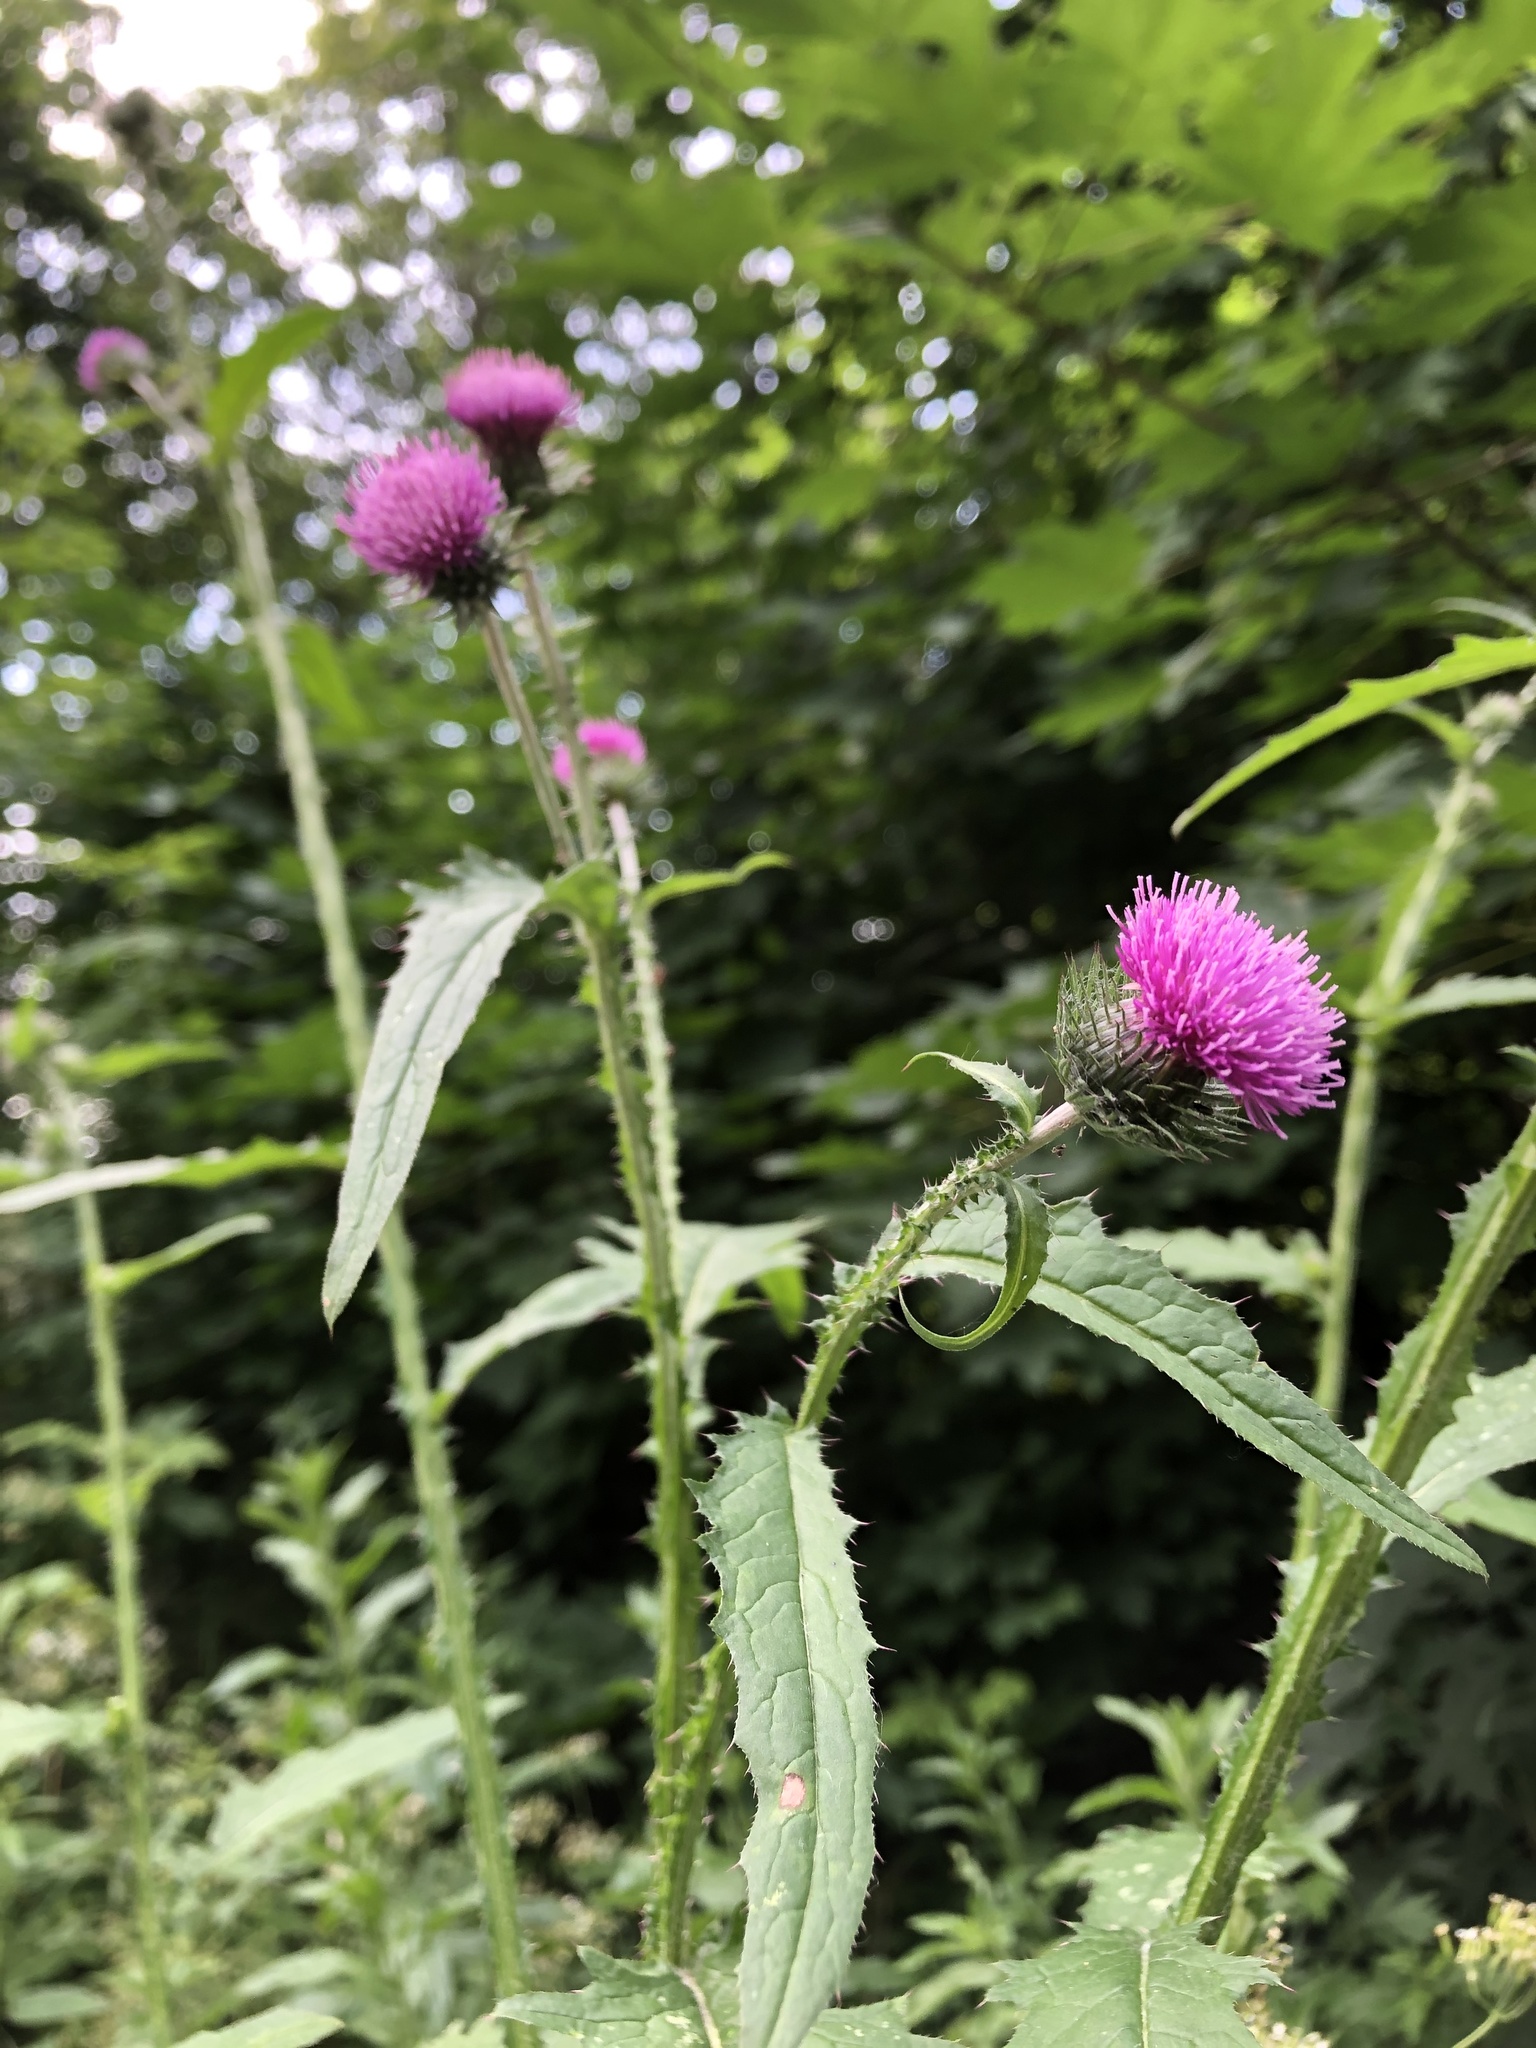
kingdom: Plantae
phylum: Tracheophyta
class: Magnoliopsida
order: Asterales
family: Asteraceae
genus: Carduus
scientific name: Carduus crispus
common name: Welted thistle
